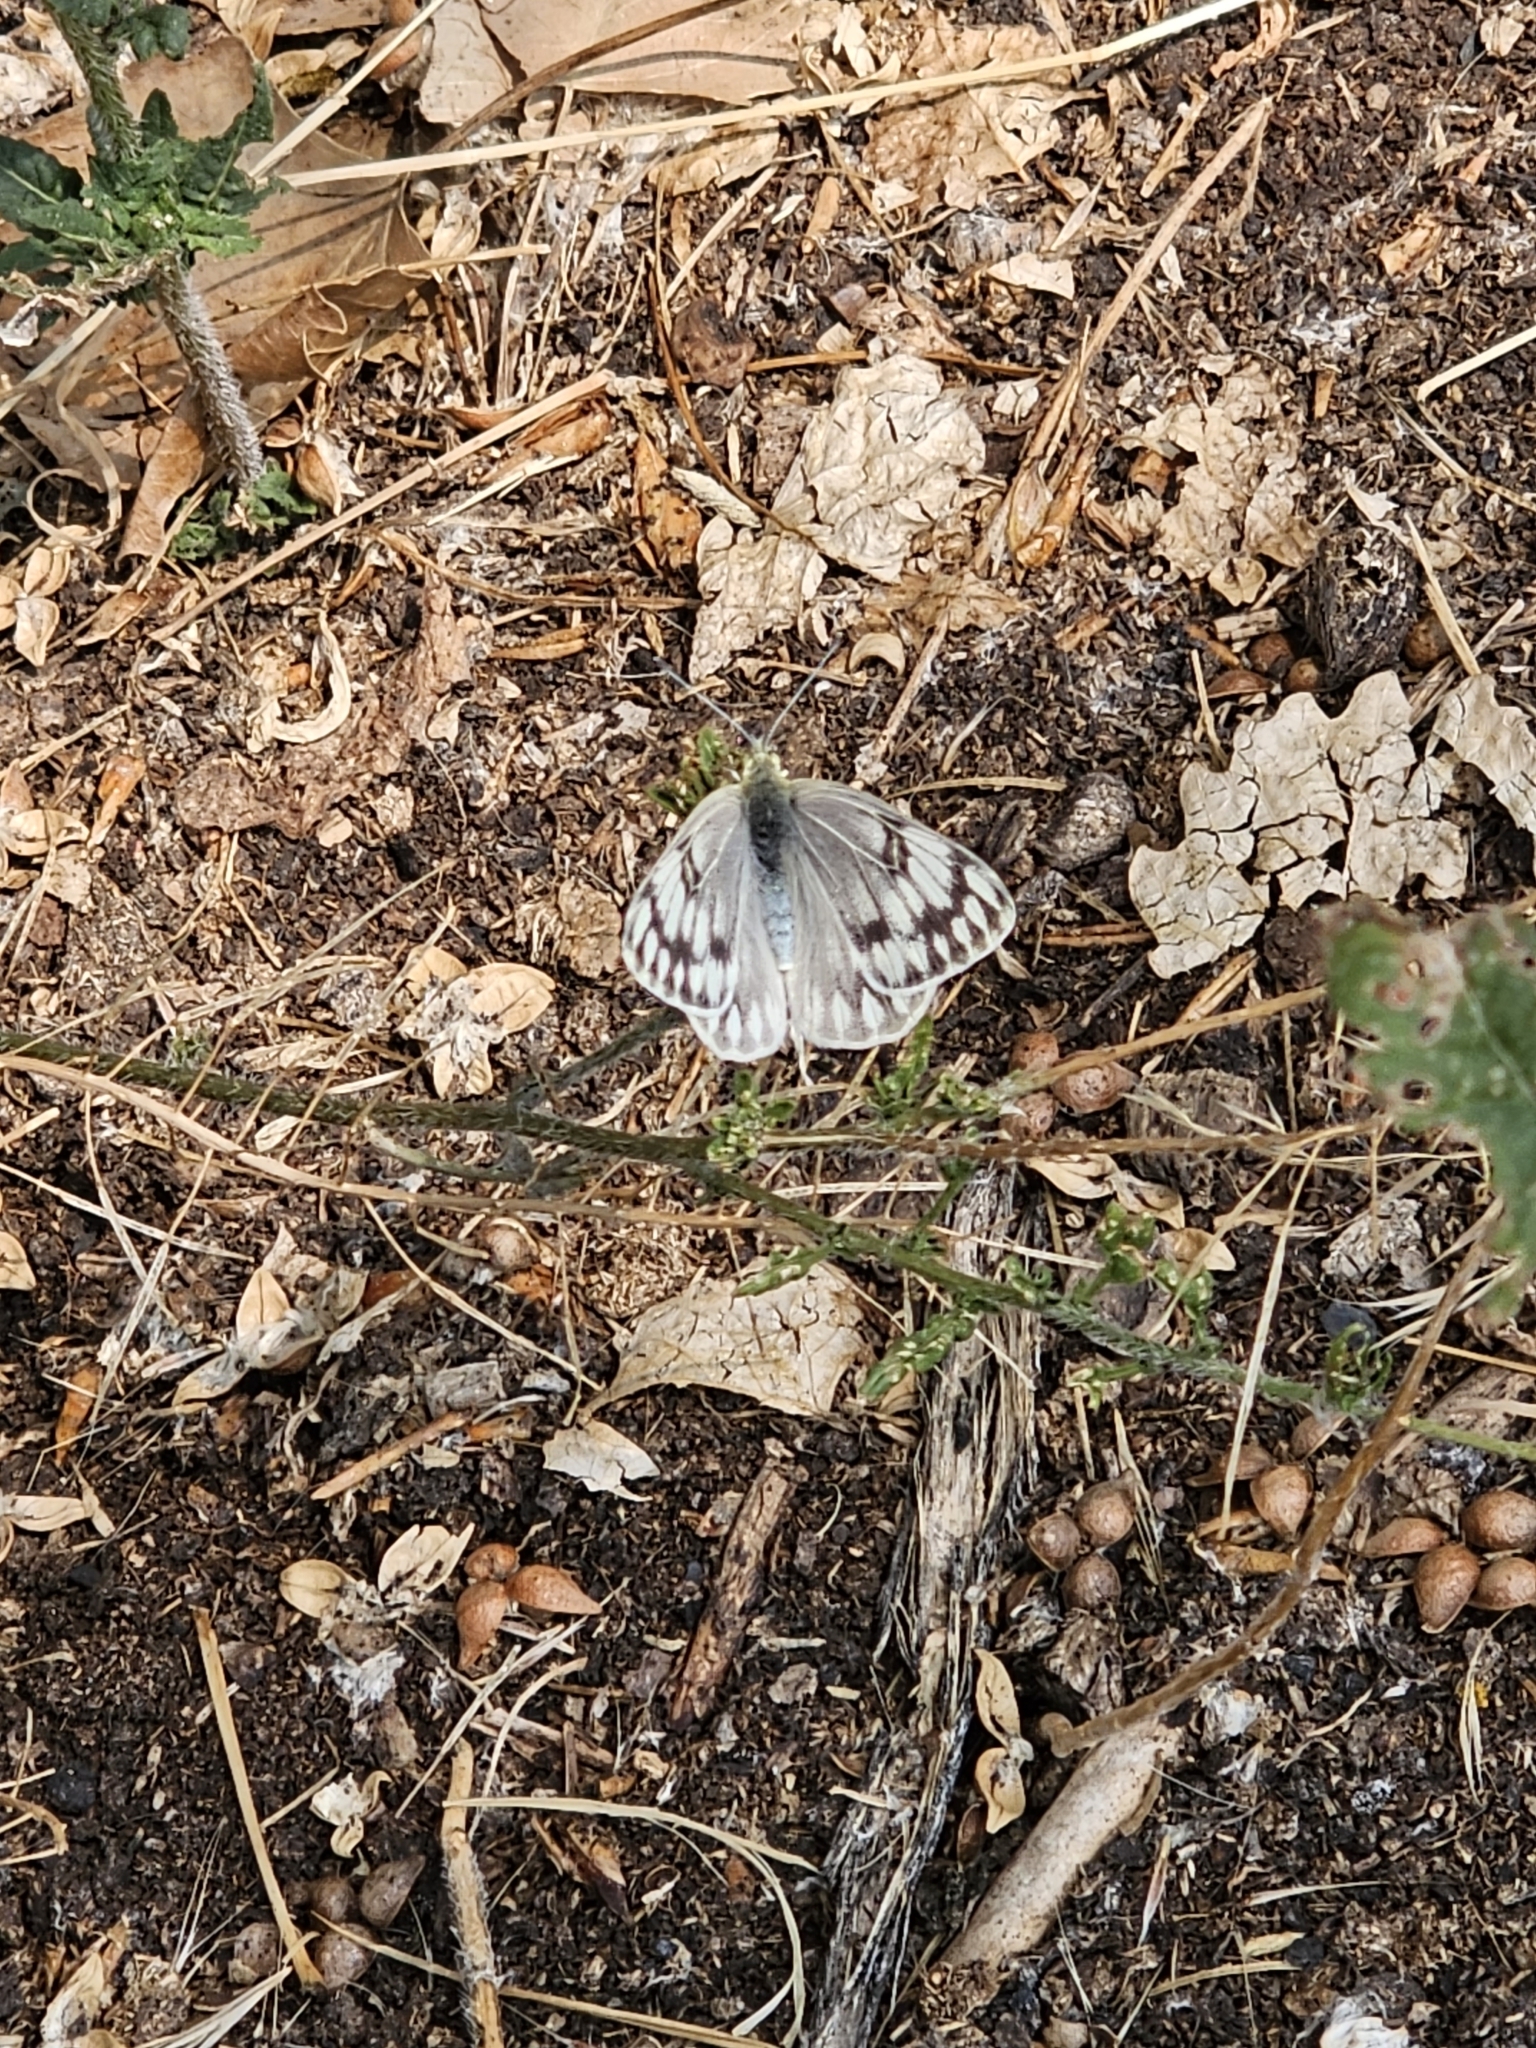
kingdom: Animalia
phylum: Arthropoda
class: Insecta
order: Lepidoptera
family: Pieridae
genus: Pontia
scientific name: Pontia occidentalis
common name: Western white
